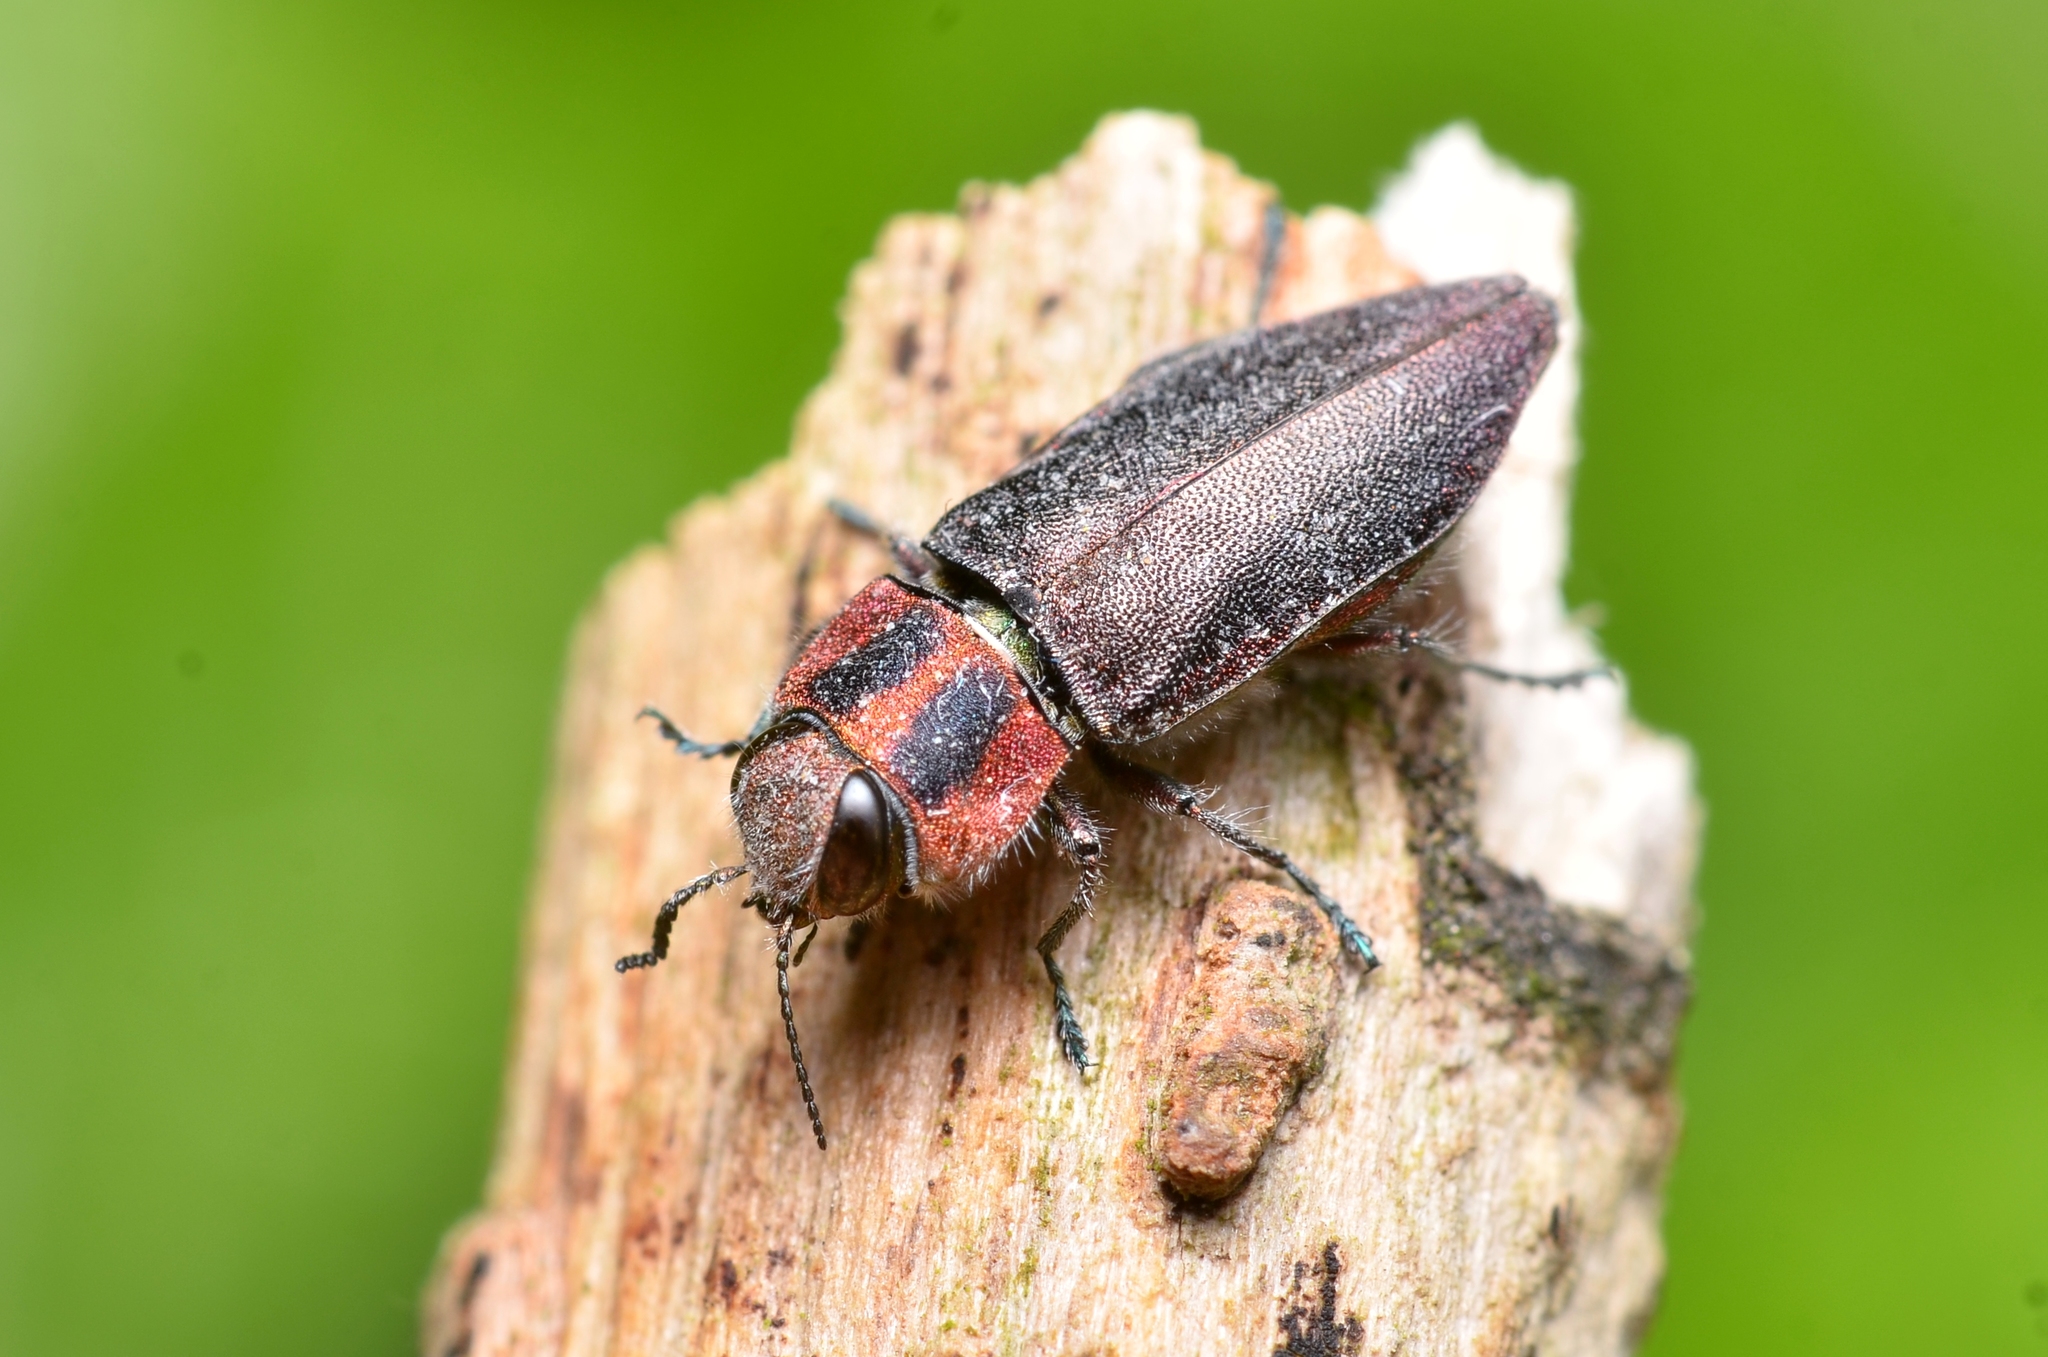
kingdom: Animalia
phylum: Arthropoda
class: Insecta
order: Coleoptera
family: Buprestidae
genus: Anthaxia
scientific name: Anthaxia manca
